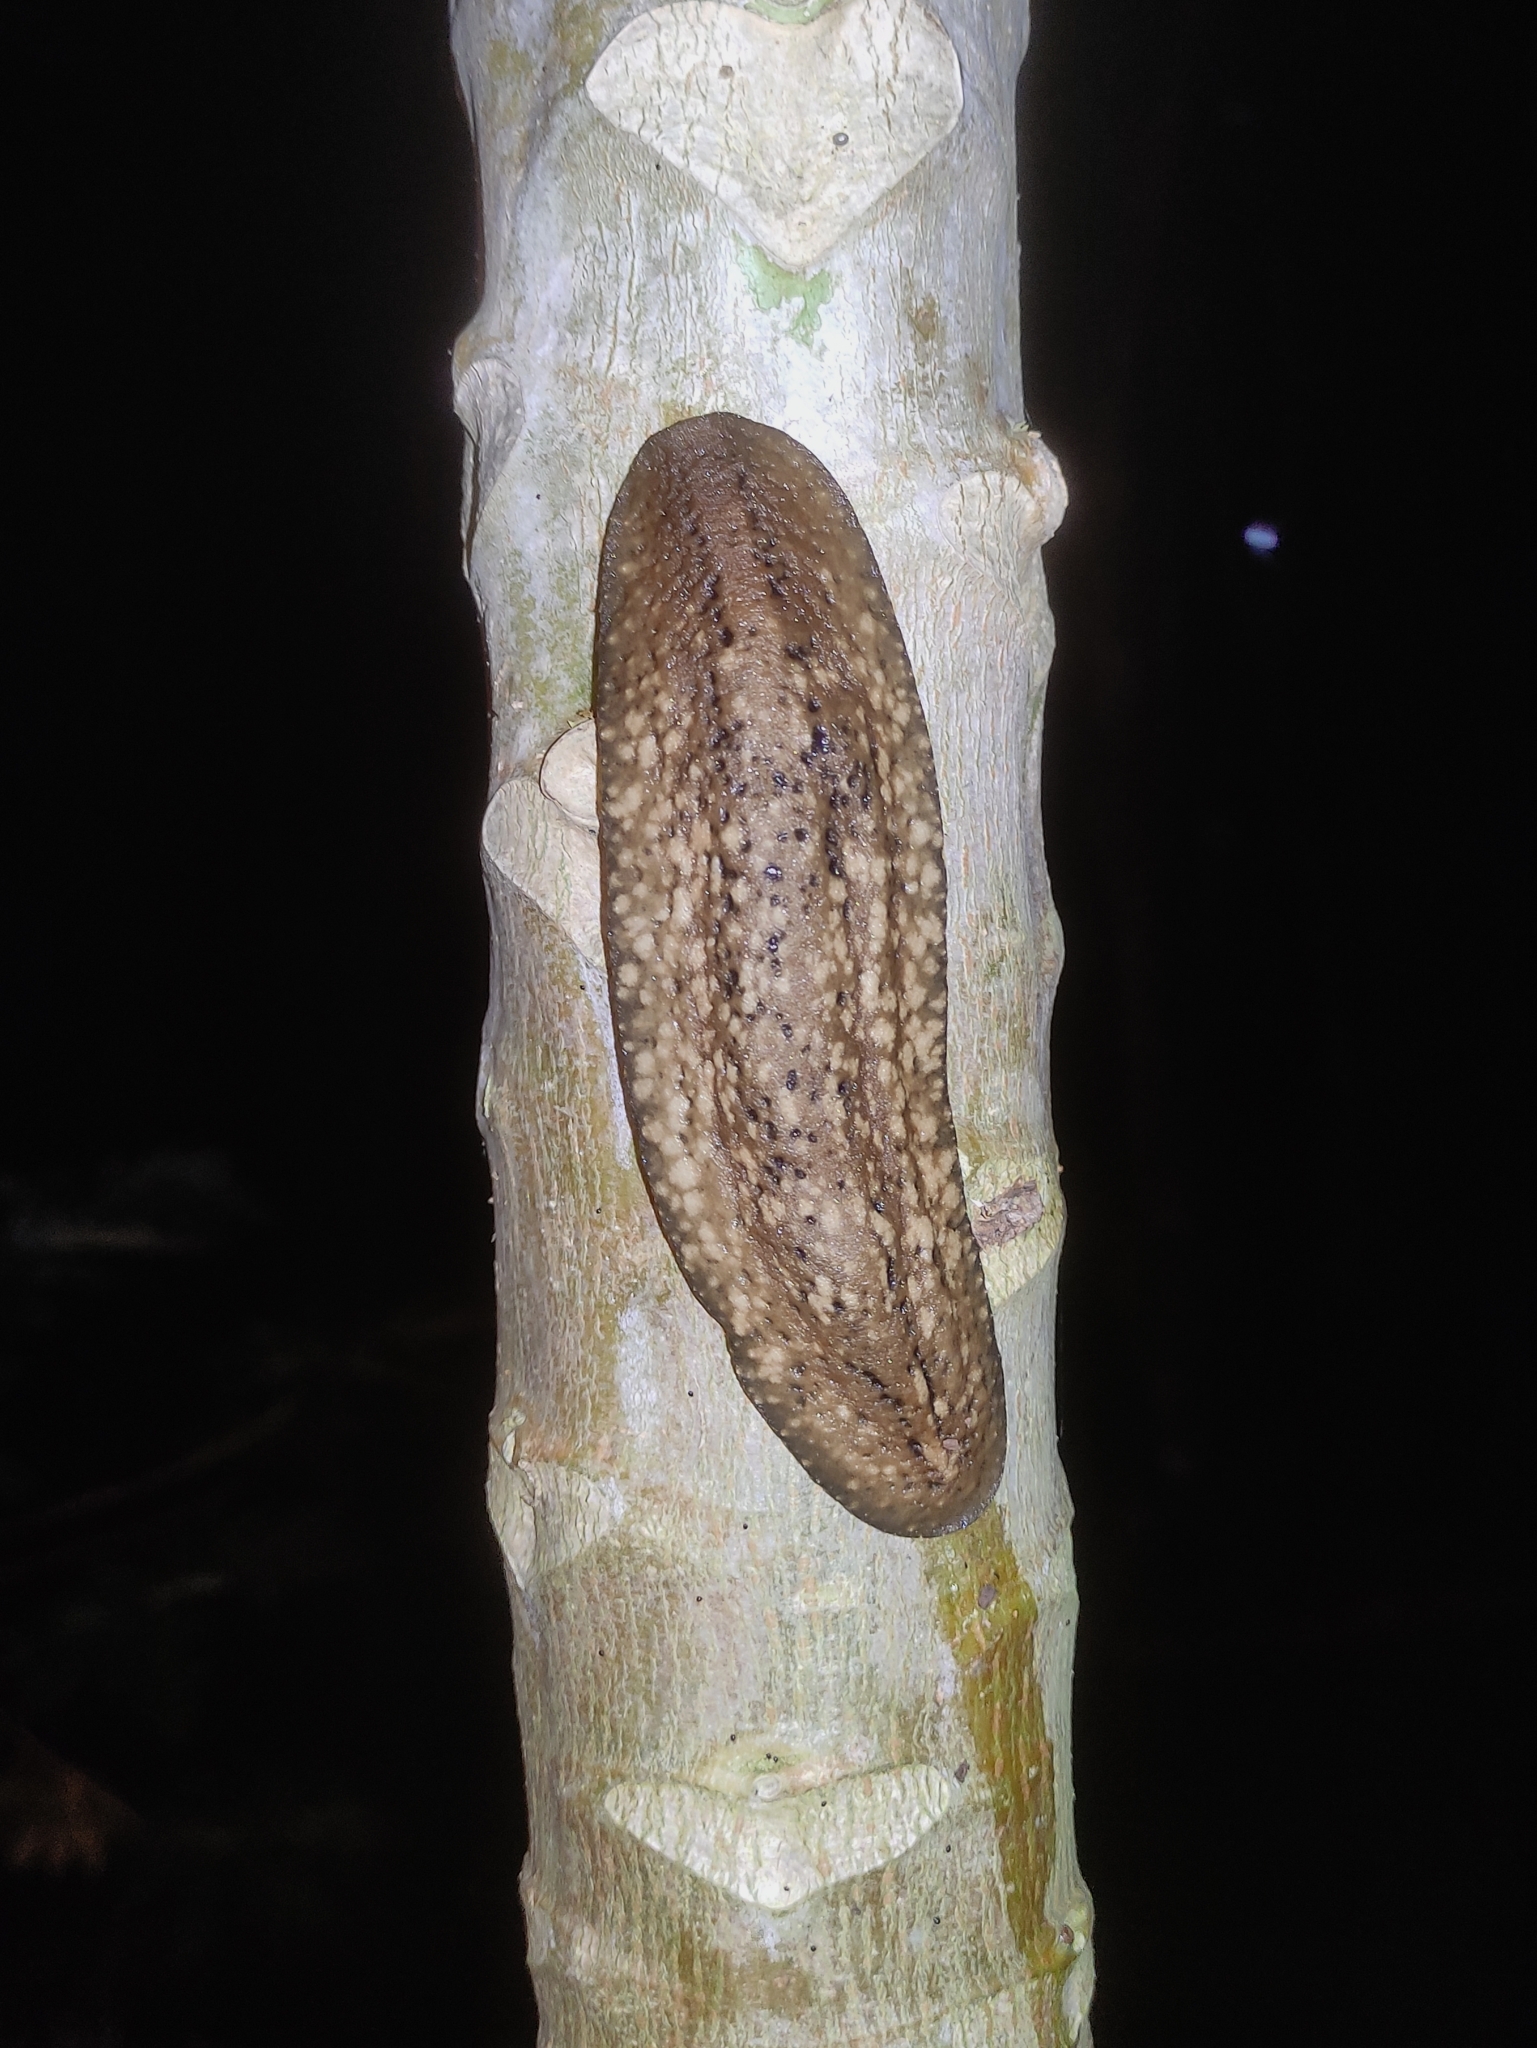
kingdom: Animalia
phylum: Mollusca
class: Gastropoda
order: Systellommatophora
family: Veronicellidae
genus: Phyllocaulis
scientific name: Phyllocaulis variegatus
